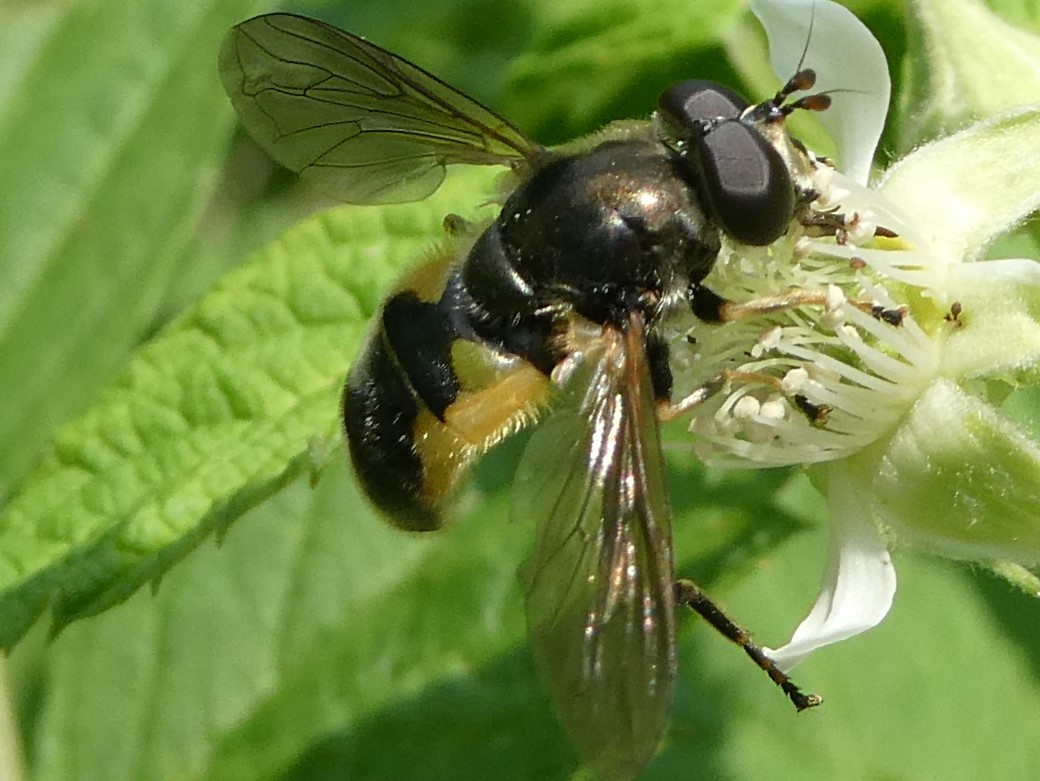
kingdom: Animalia
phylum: Arthropoda
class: Insecta
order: Diptera
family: Syrphidae
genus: Blera
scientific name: Blera confusa
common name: Confusing wood fly
